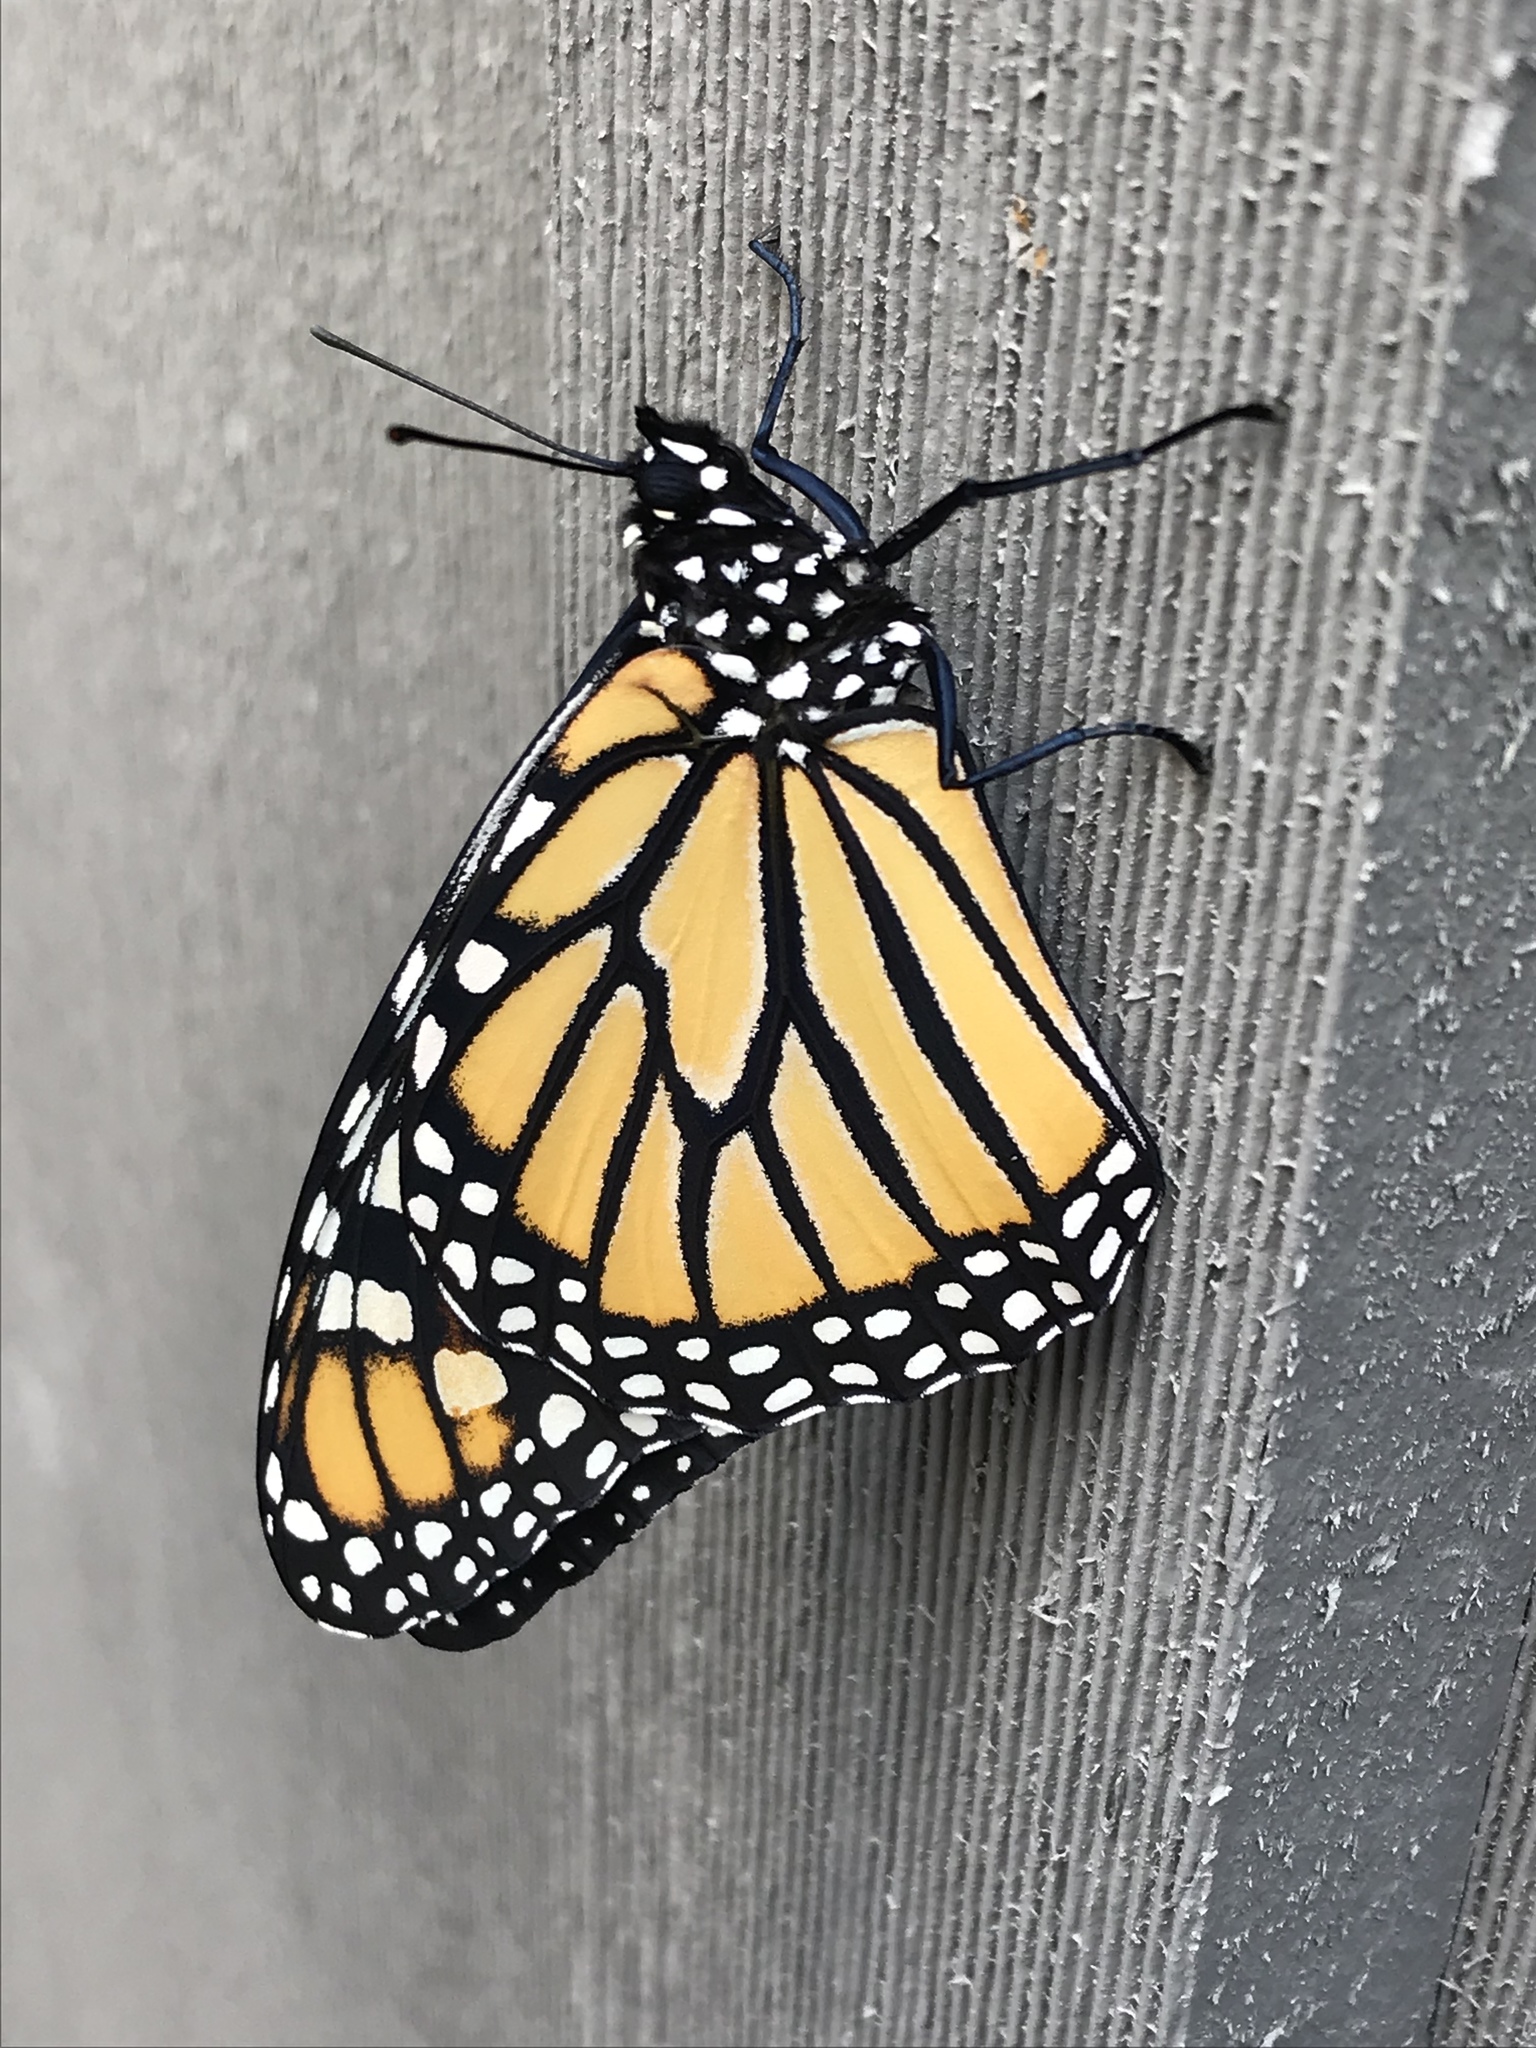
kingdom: Animalia
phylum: Arthropoda
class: Insecta
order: Lepidoptera
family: Nymphalidae
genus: Danaus
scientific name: Danaus plexippus
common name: Monarch
